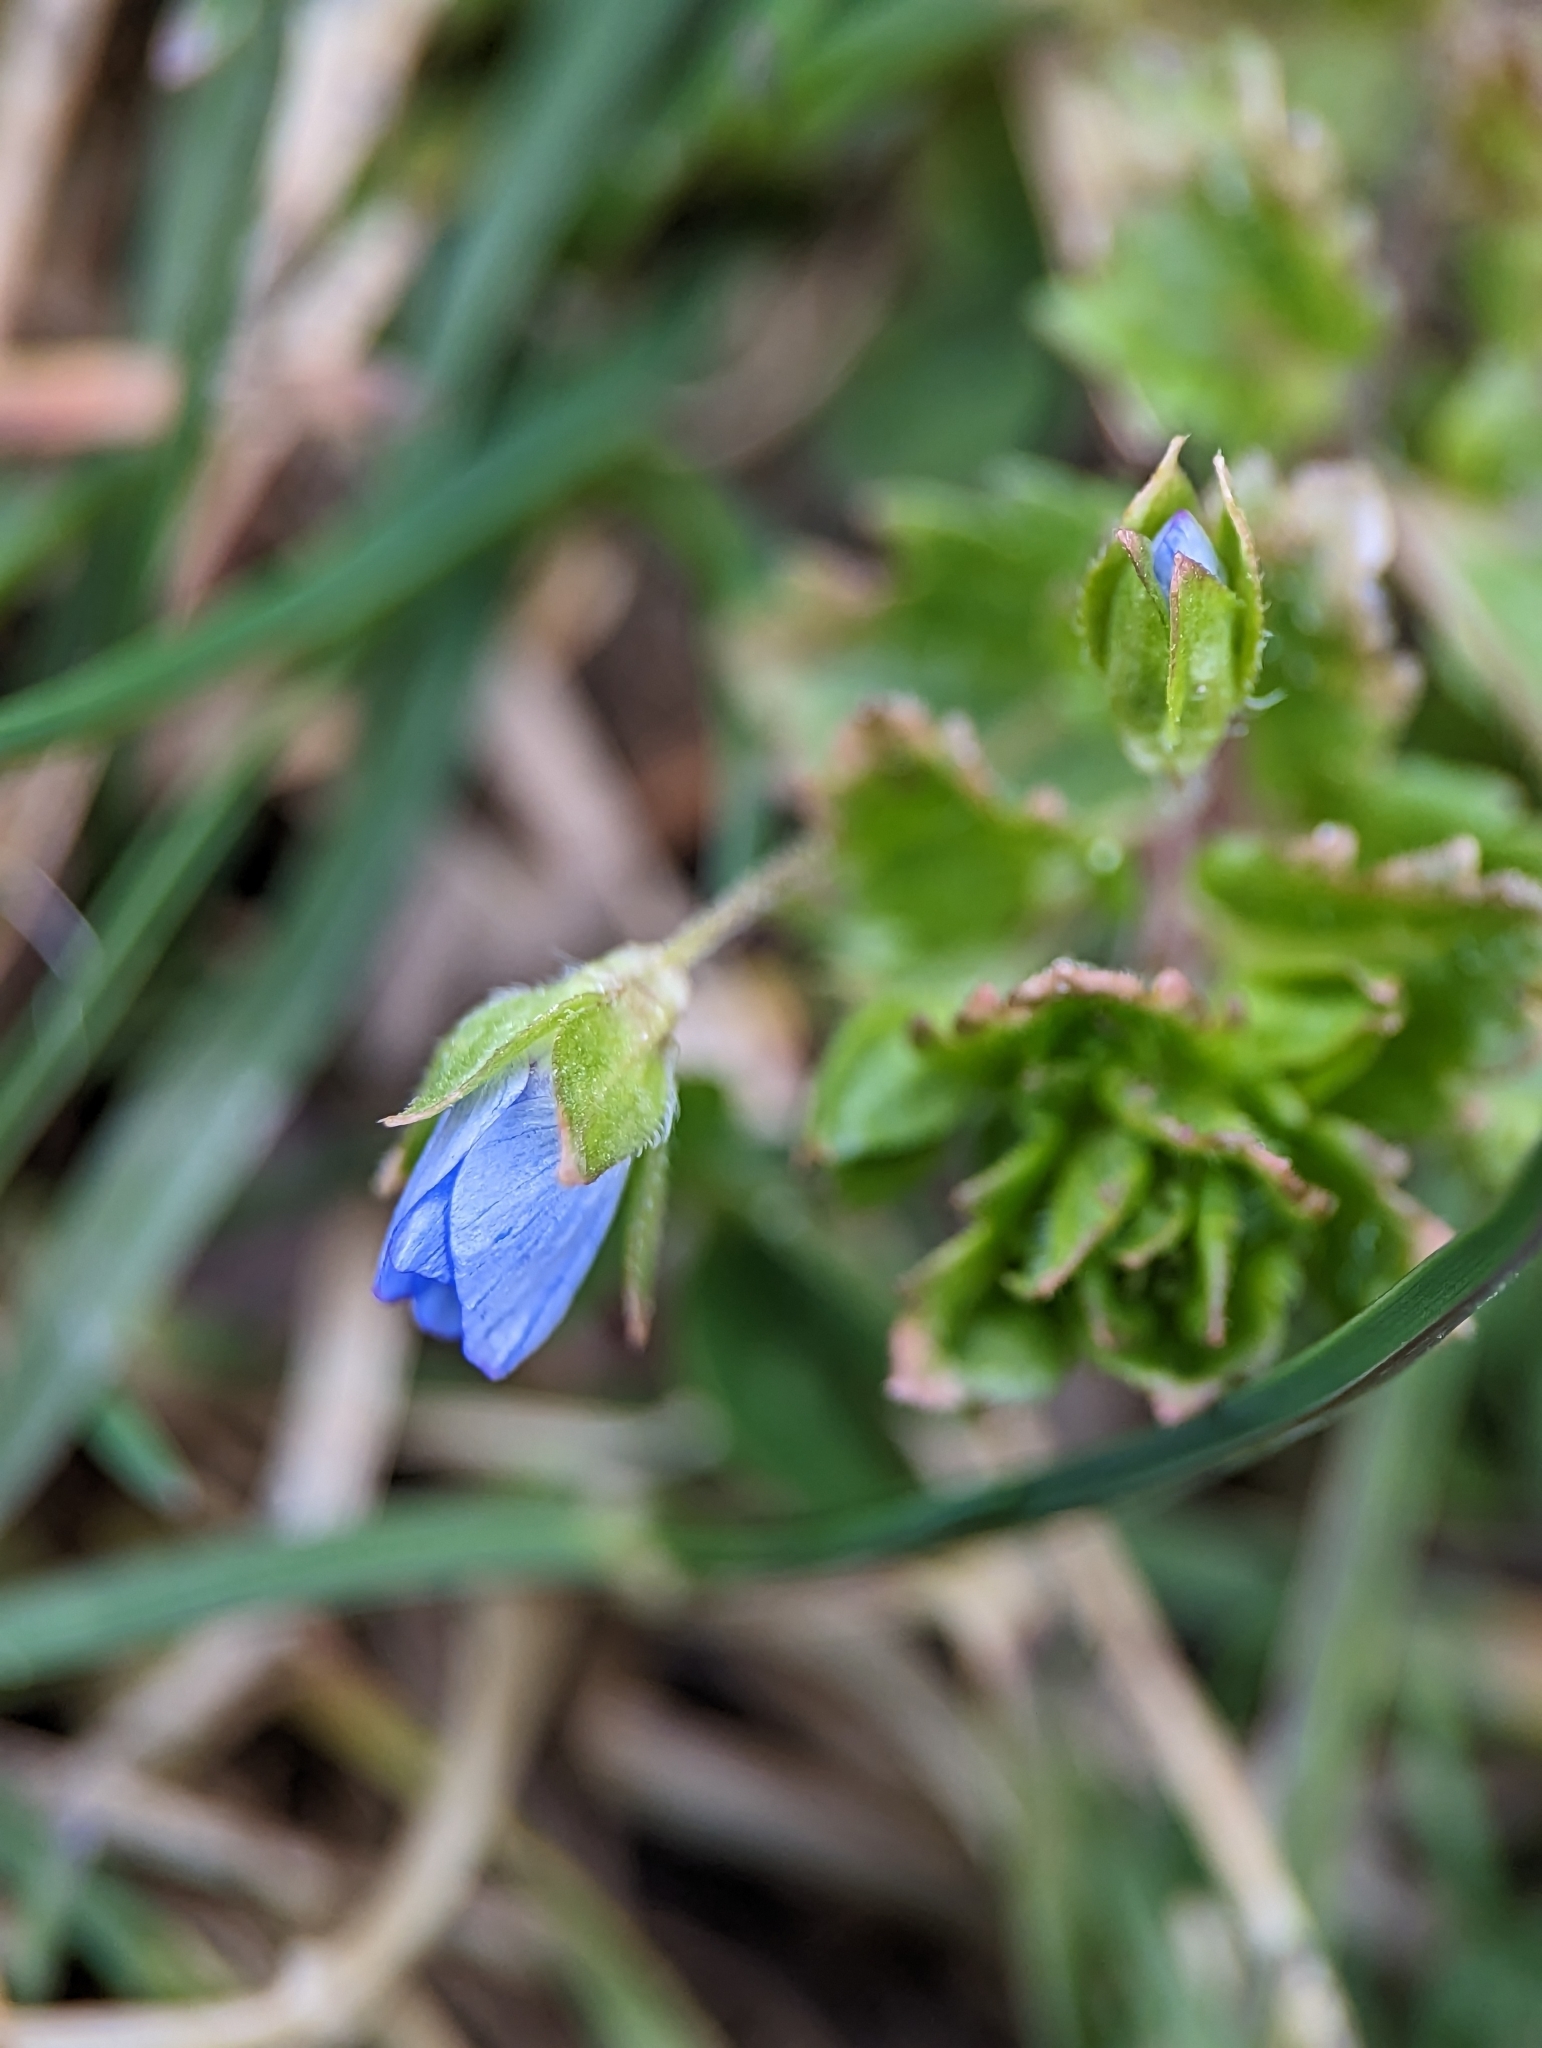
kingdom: Plantae
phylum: Tracheophyta
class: Magnoliopsida
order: Lamiales
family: Plantaginaceae
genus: Veronica
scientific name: Veronica persica
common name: Common field-speedwell
